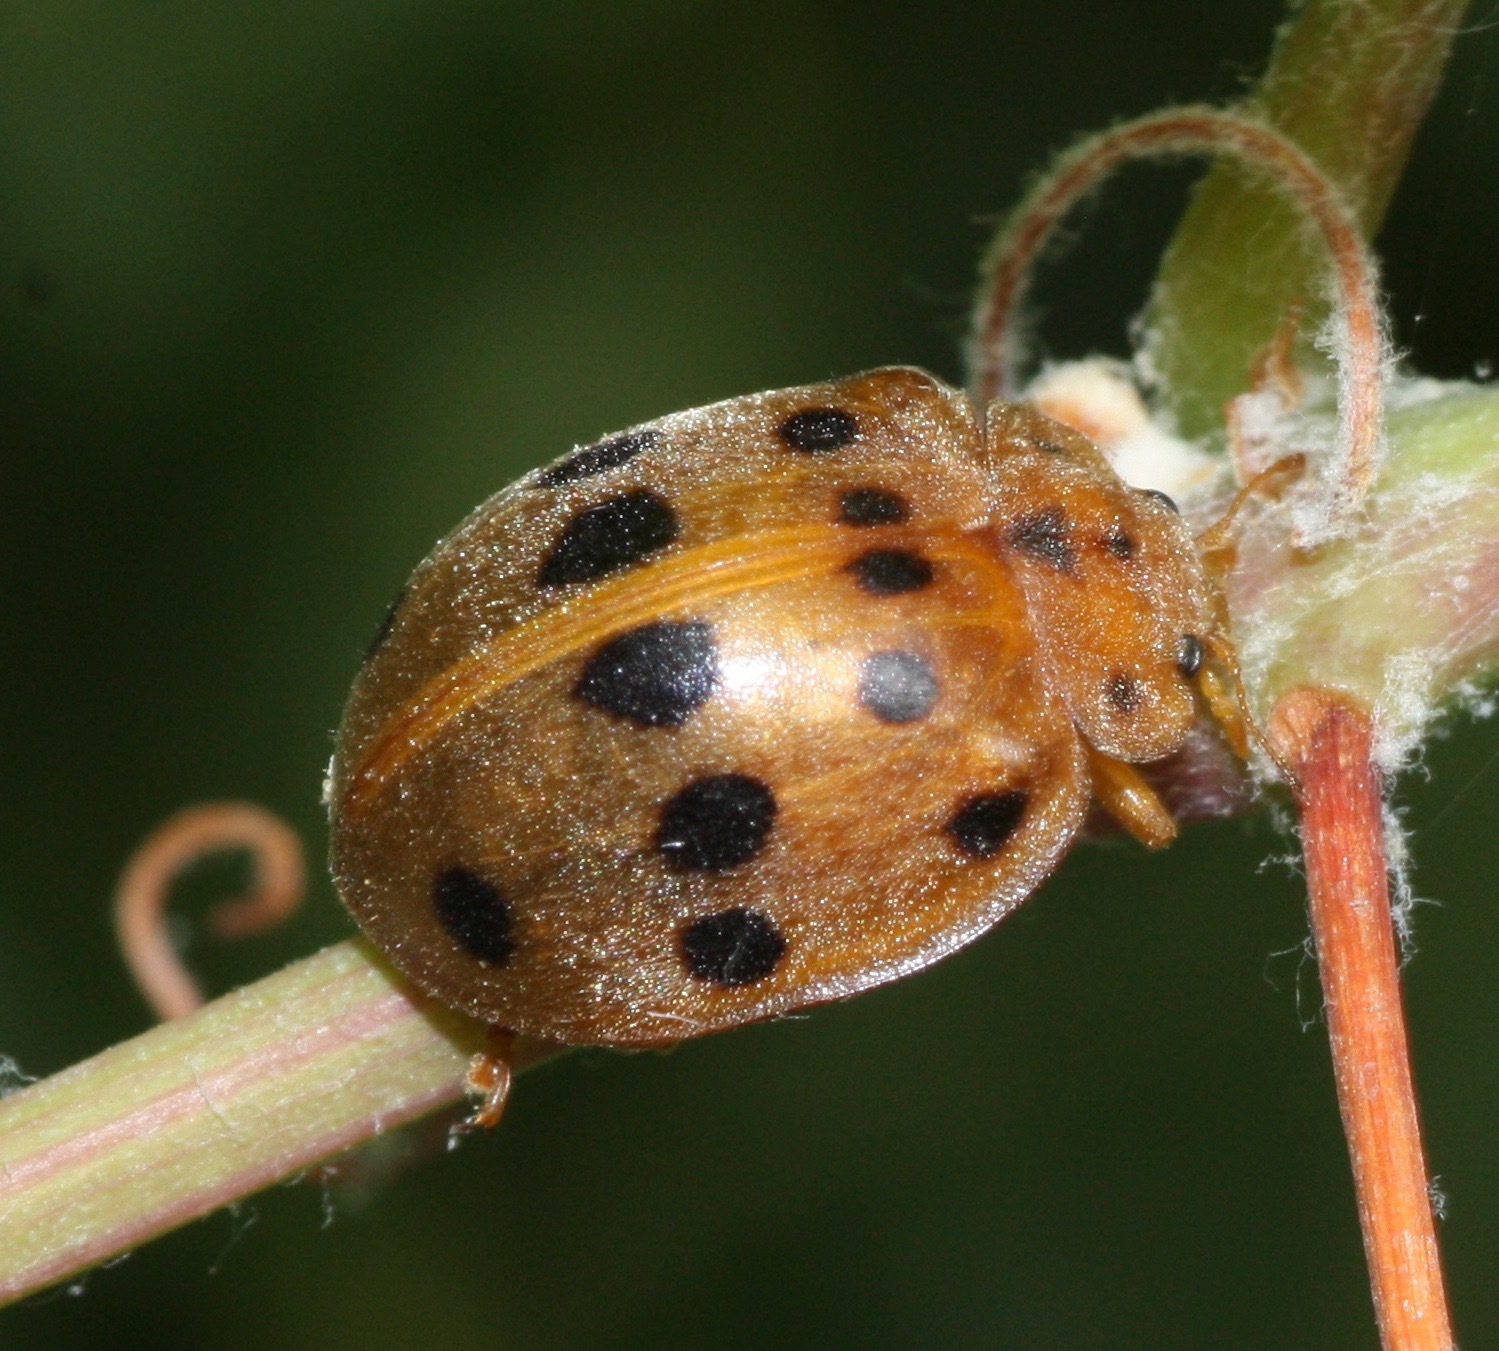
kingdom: Animalia
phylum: Arthropoda
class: Insecta
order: Coleoptera
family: Coccinellidae
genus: Epilachna
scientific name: Epilachna tredecimnotata
